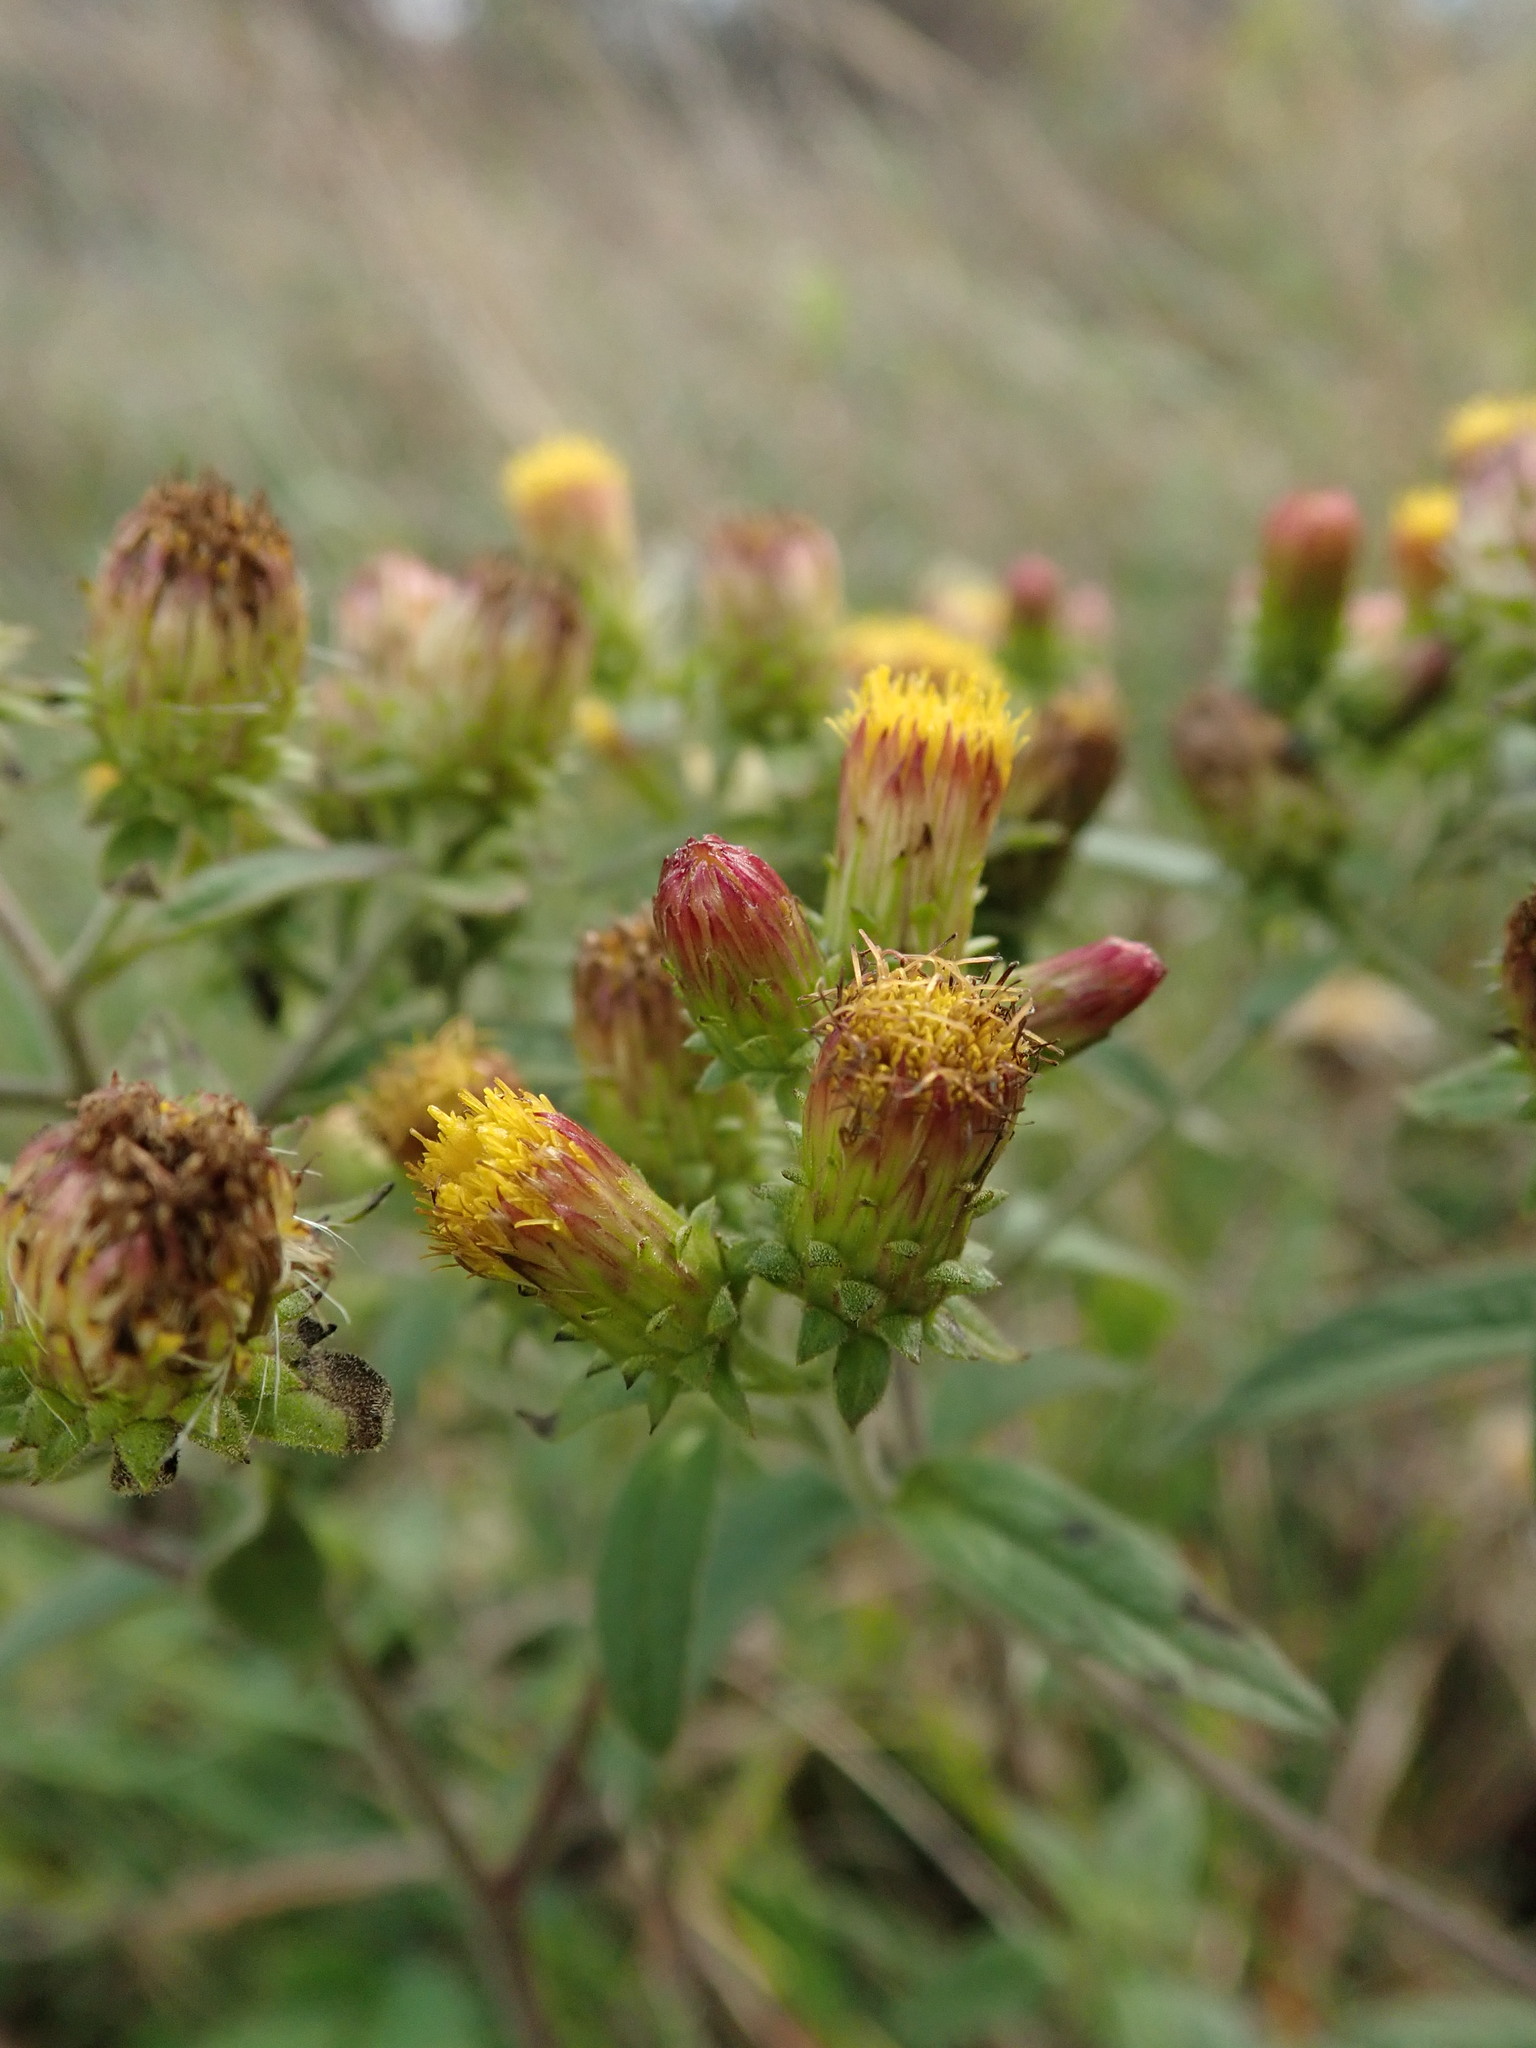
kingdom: Plantae
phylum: Tracheophyta
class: Magnoliopsida
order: Asterales
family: Asteraceae
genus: Pentanema
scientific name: Pentanema squarrosum
